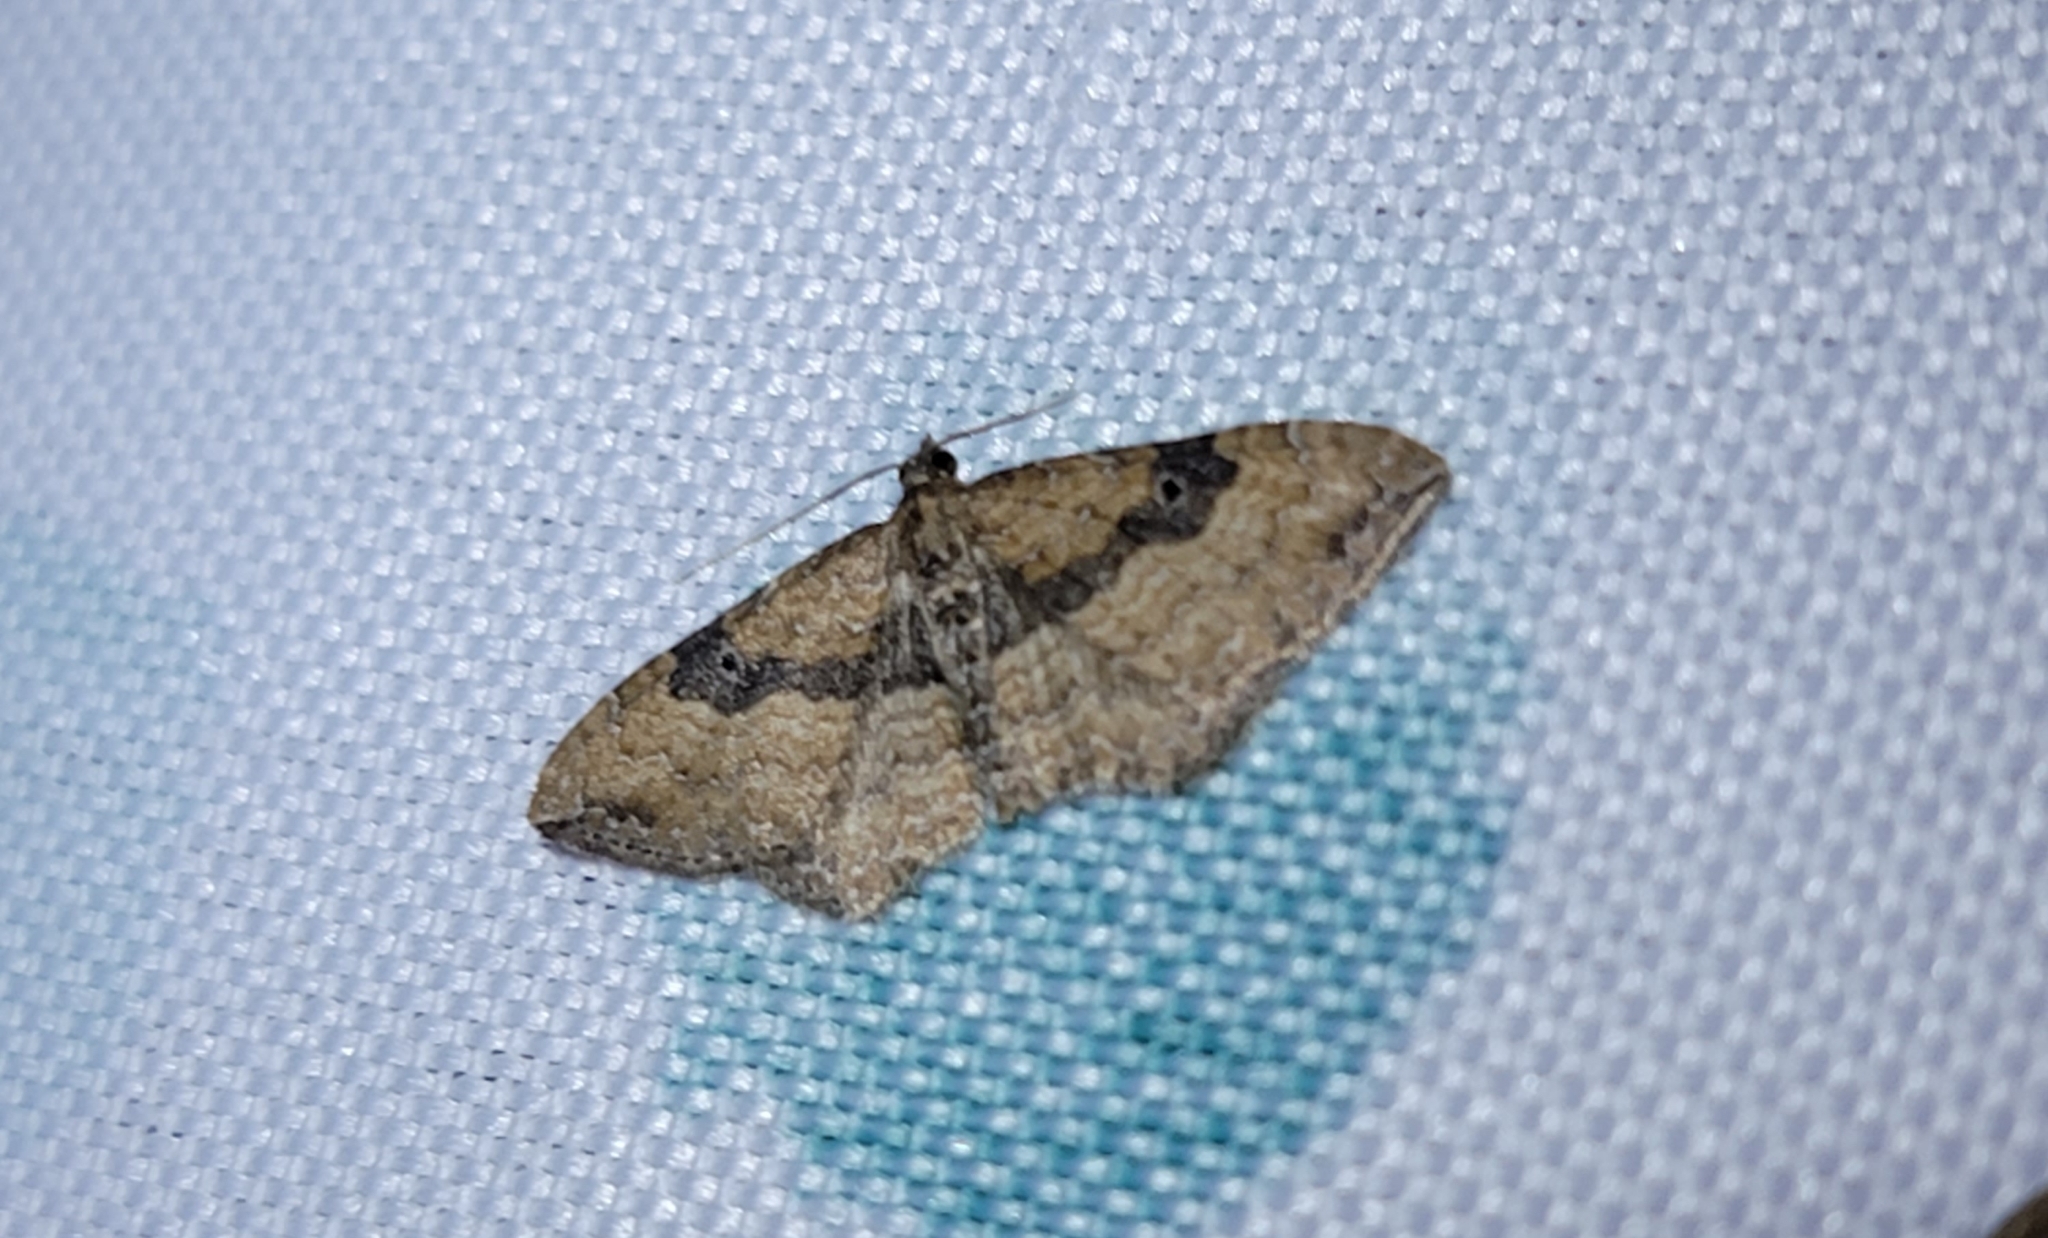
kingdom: Animalia
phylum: Arthropoda
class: Insecta
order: Lepidoptera
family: Geometridae
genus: Orthonama
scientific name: Orthonama obstipata
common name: The gem
